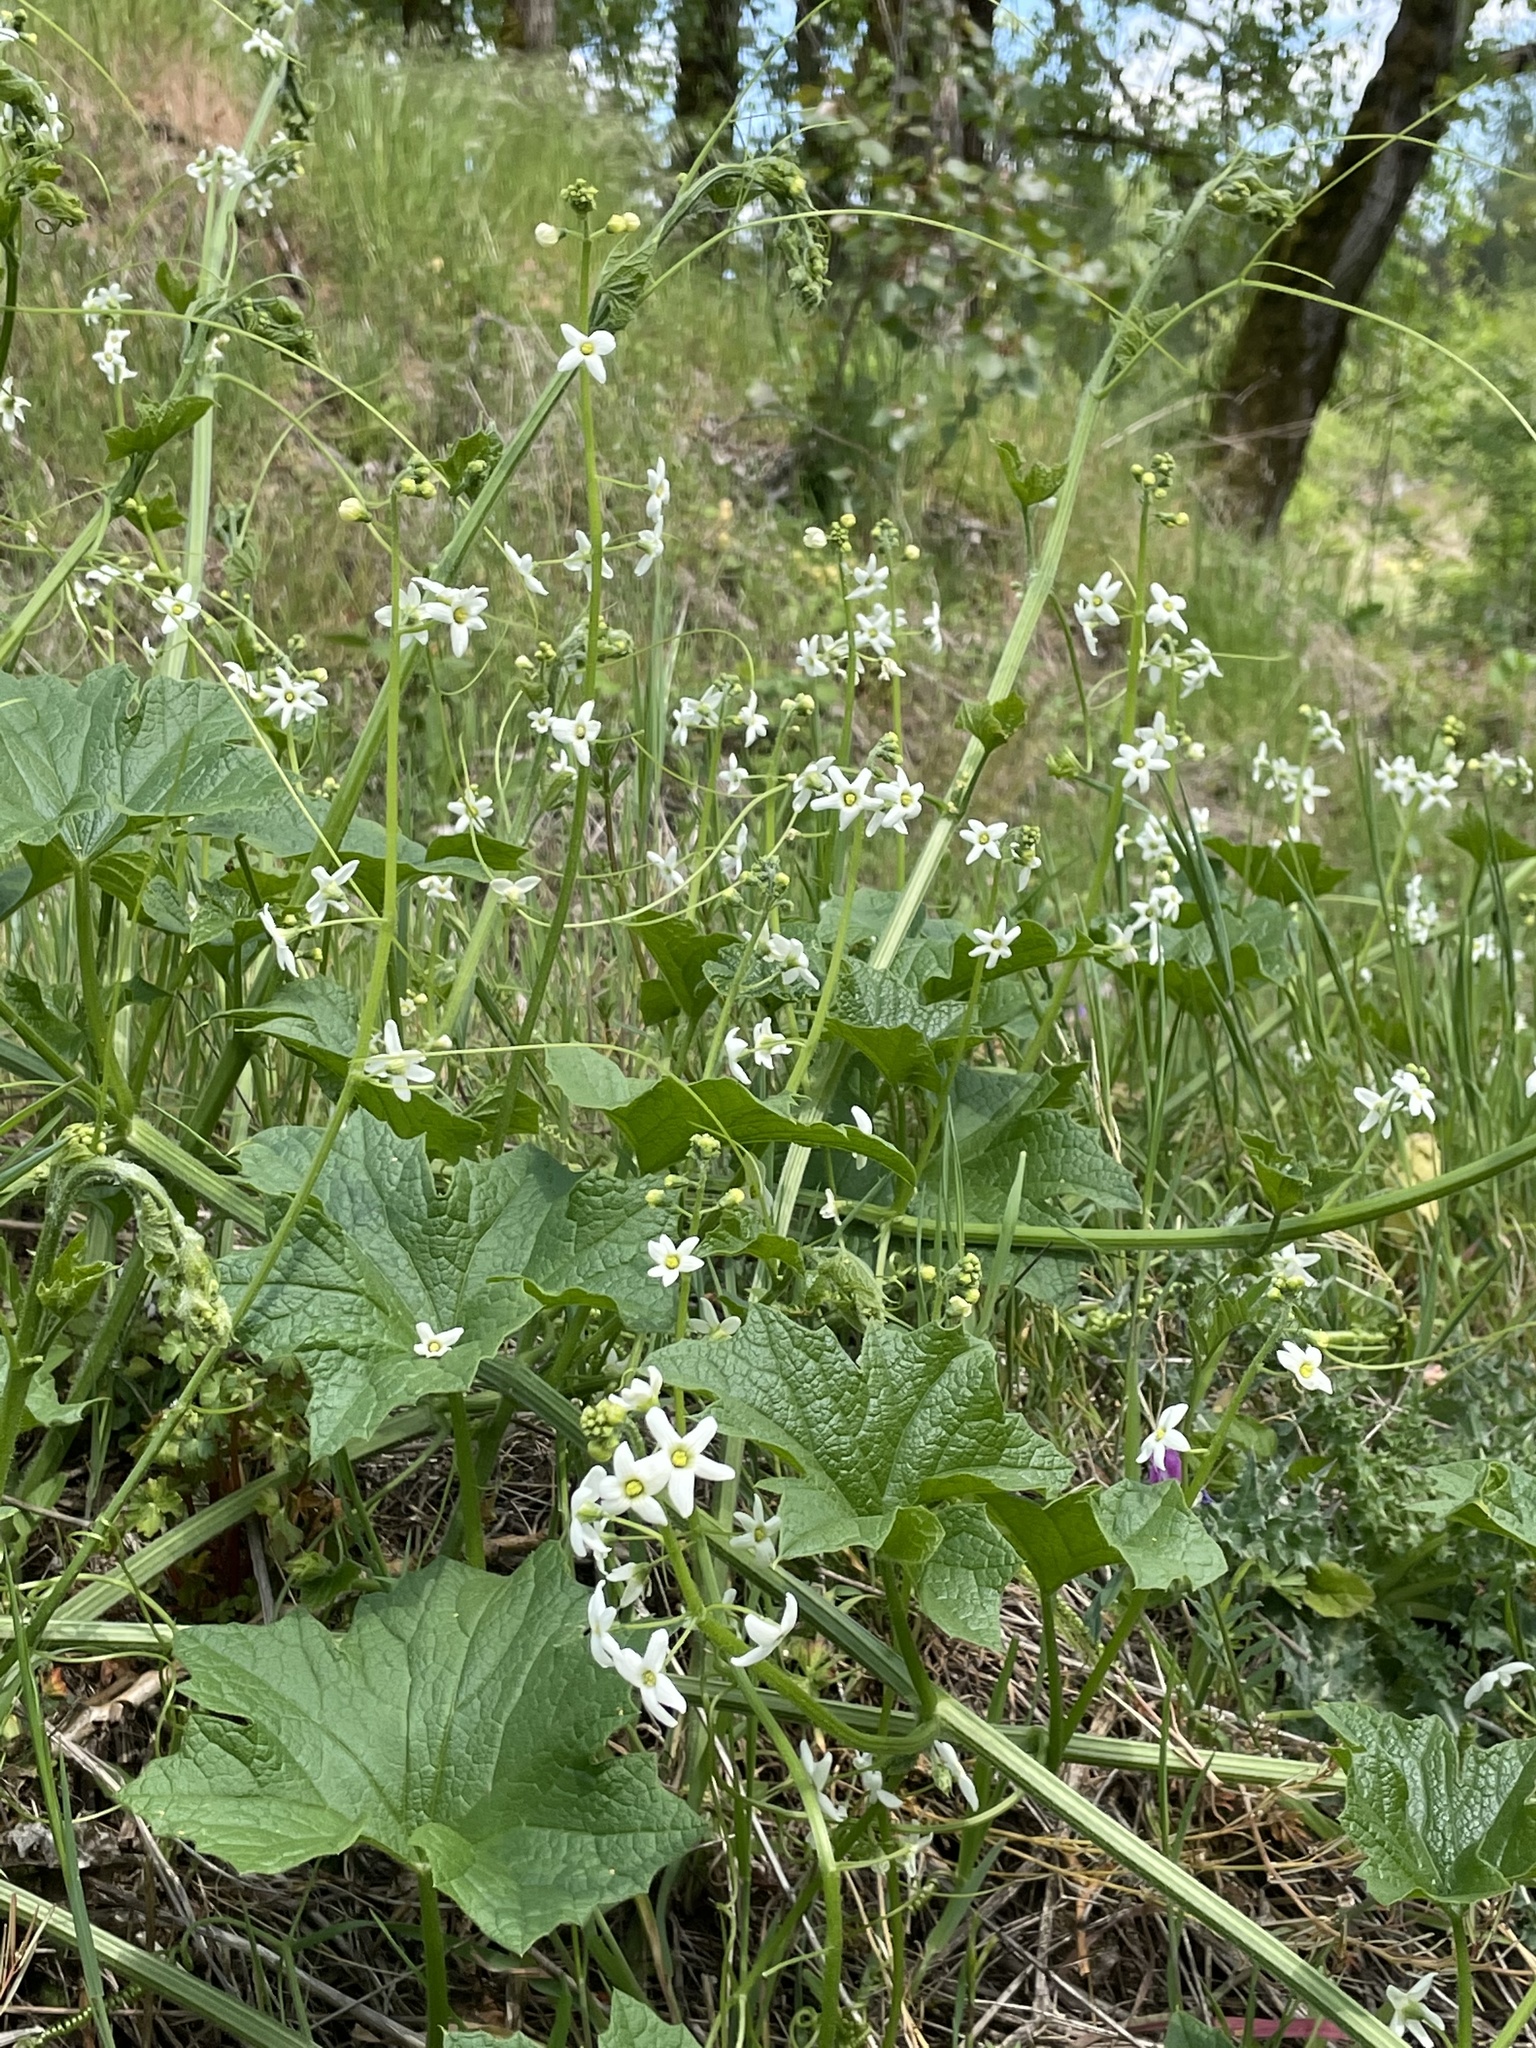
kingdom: Plantae
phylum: Tracheophyta
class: Magnoliopsida
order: Cucurbitales
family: Cucurbitaceae
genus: Marah
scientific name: Marah oregana
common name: Coastal manroot
